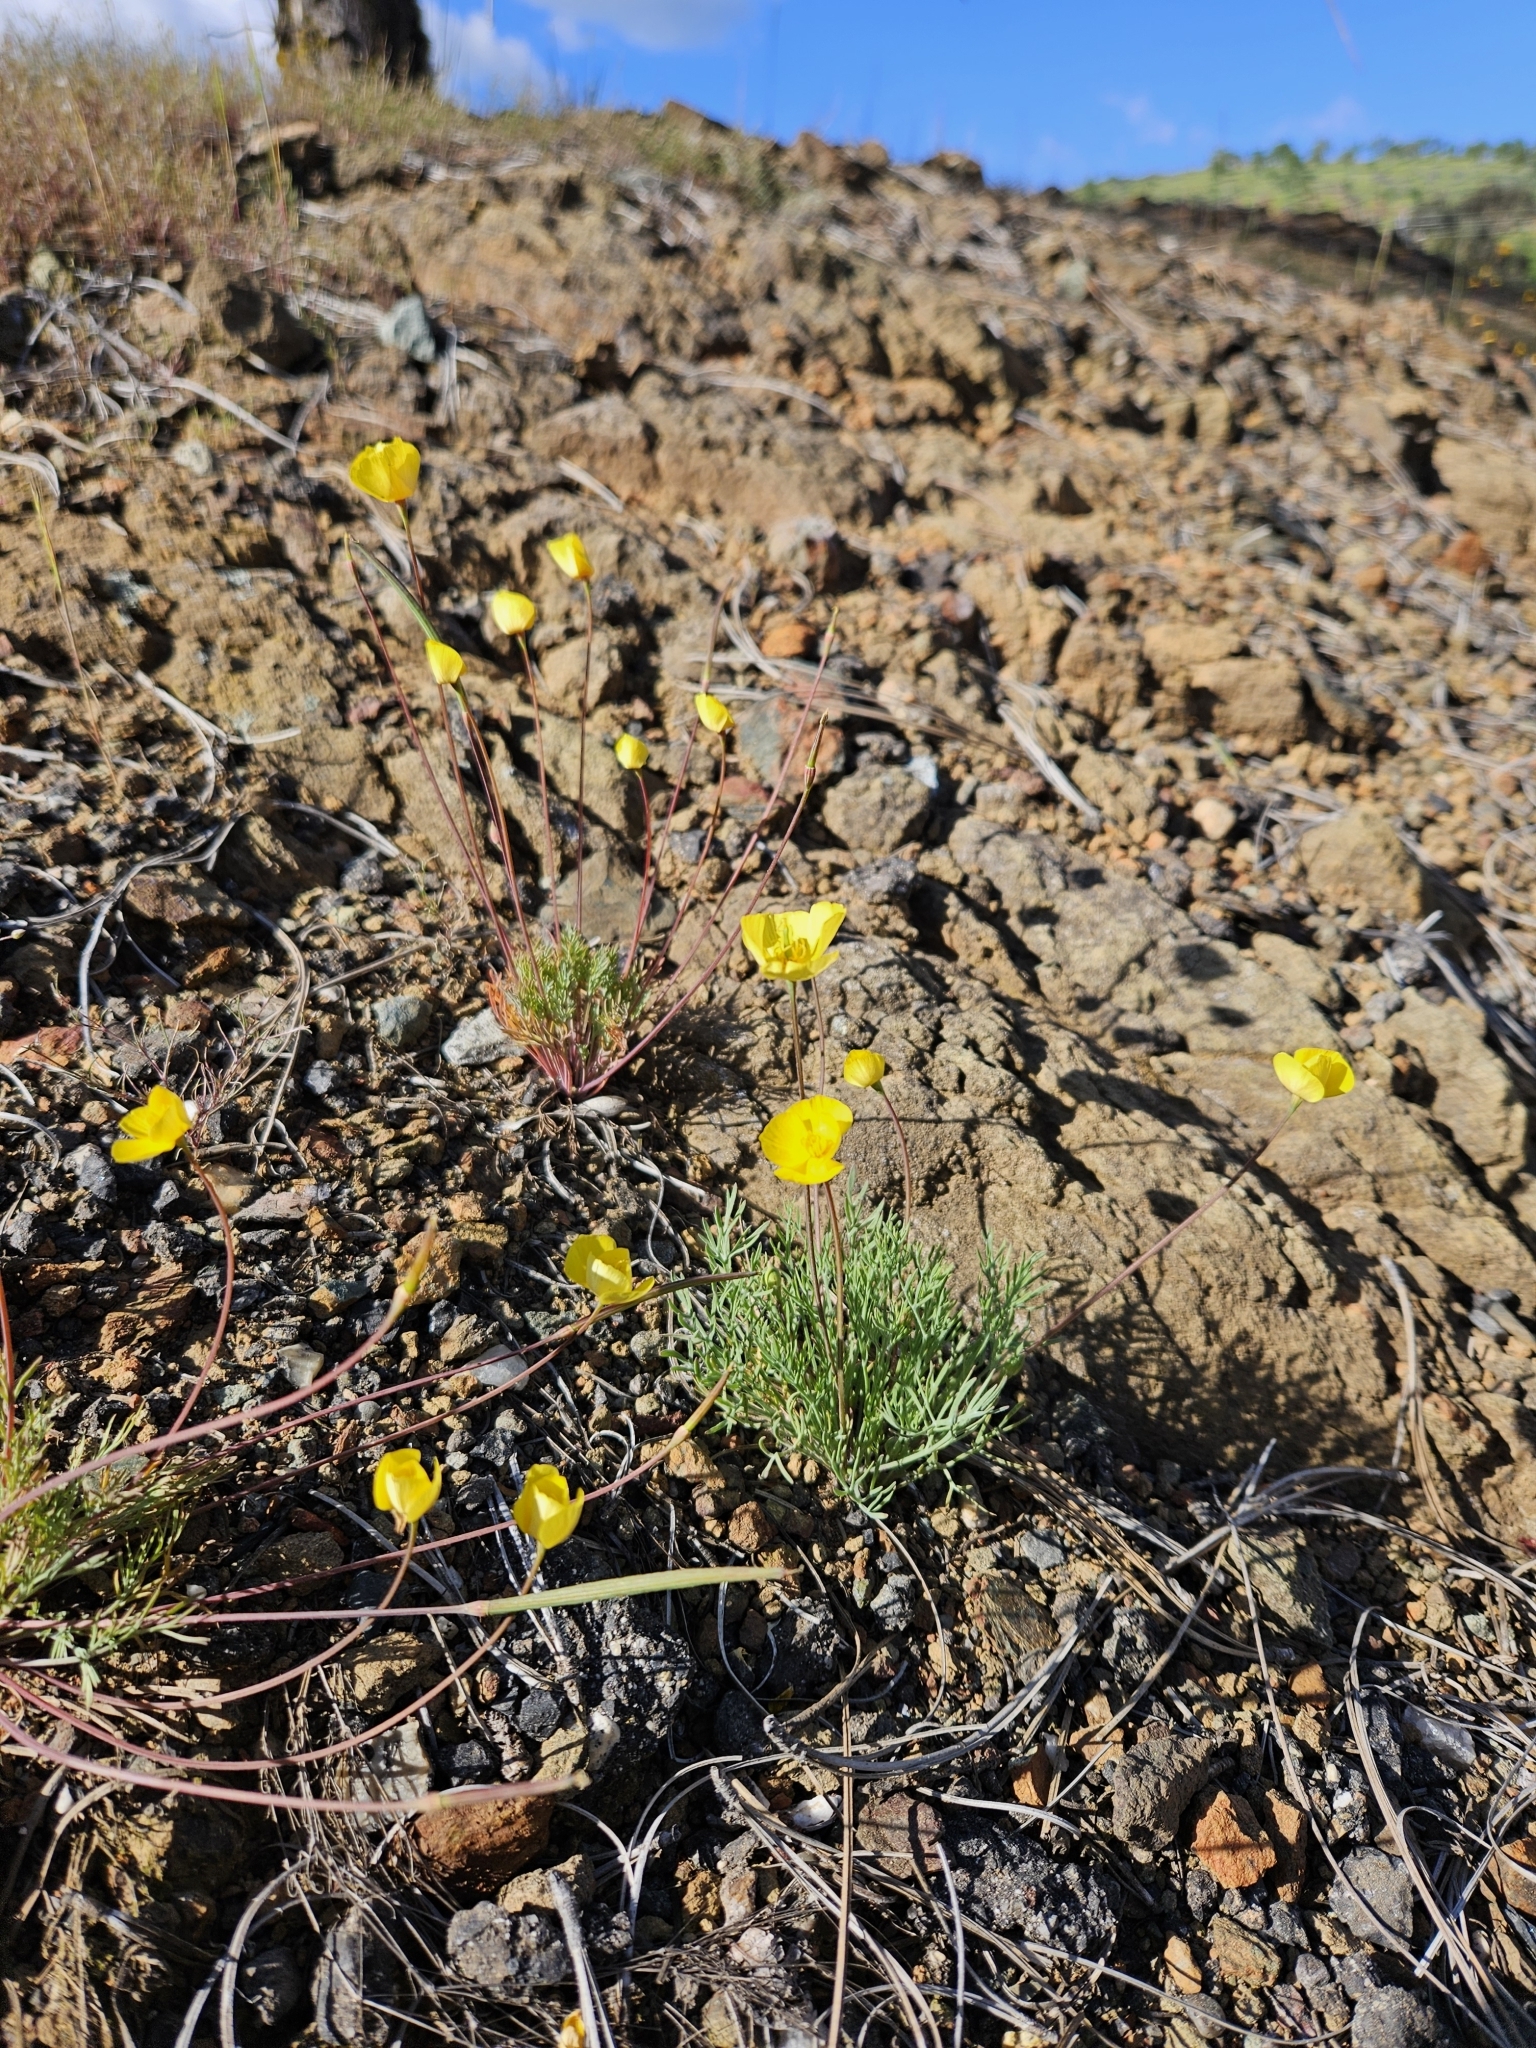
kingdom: Plantae
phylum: Tracheophyta
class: Magnoliopsida
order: Ranunculales
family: Papaveraceae
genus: Eschscholzia
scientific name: Eschscholzia lobbii
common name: Frying-pans
